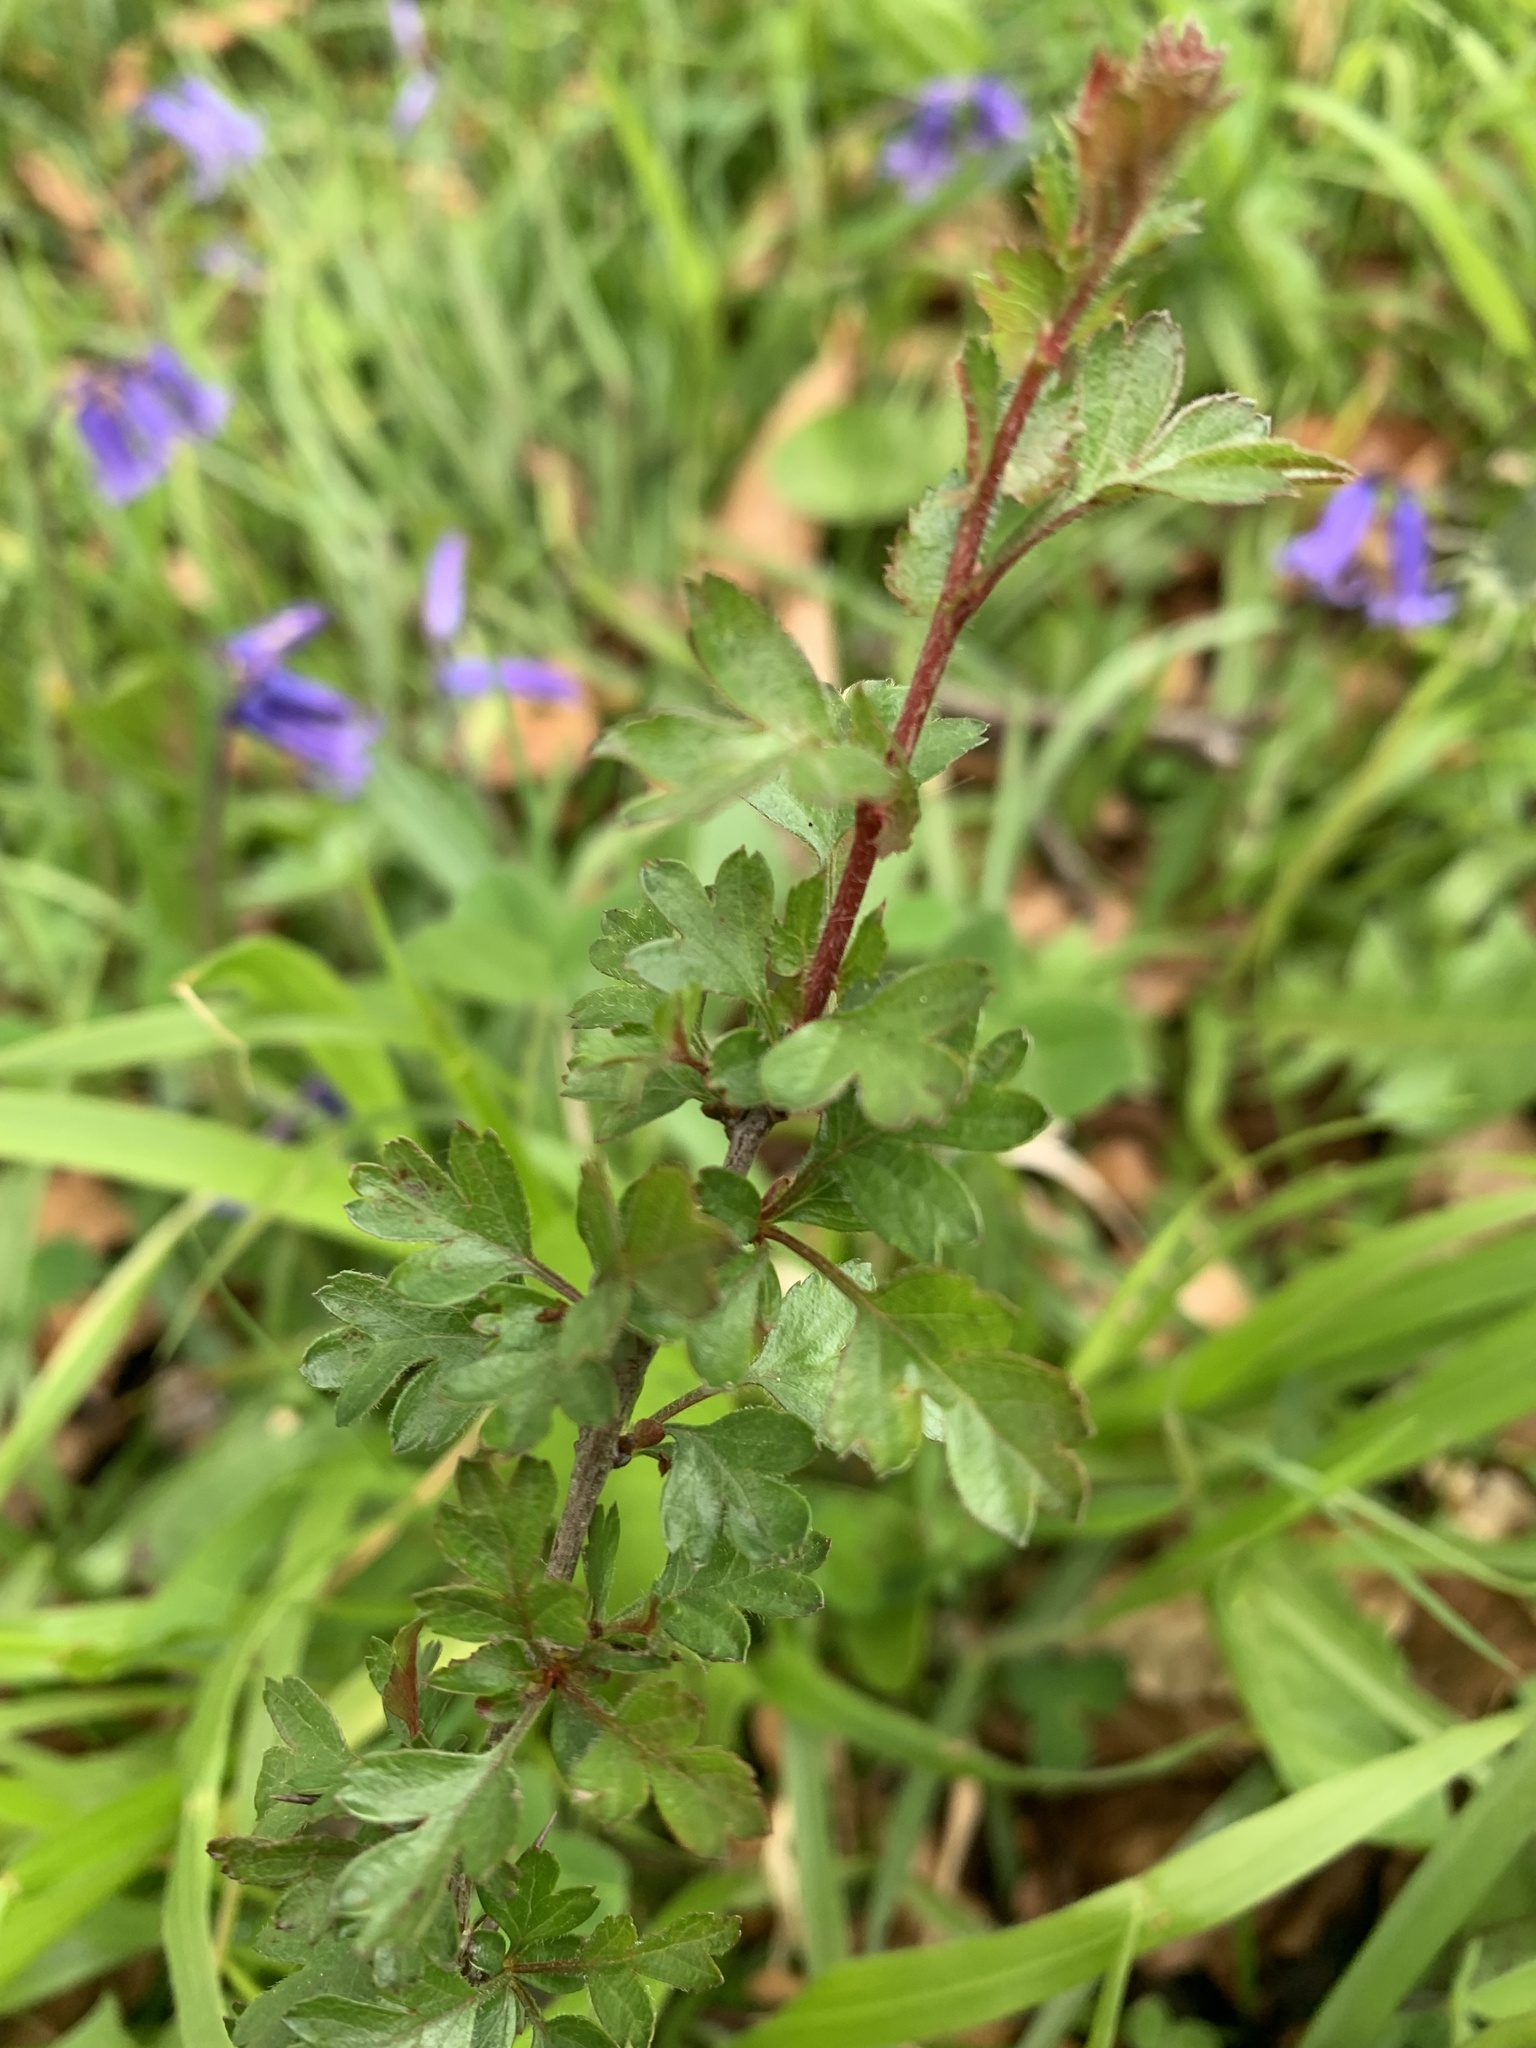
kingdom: Plantae
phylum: Tracheophyta
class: Magnoliopsida
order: Rosales
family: Rosaceae
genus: Crataegus
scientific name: Crataegus monogyna
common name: Hawthorn
